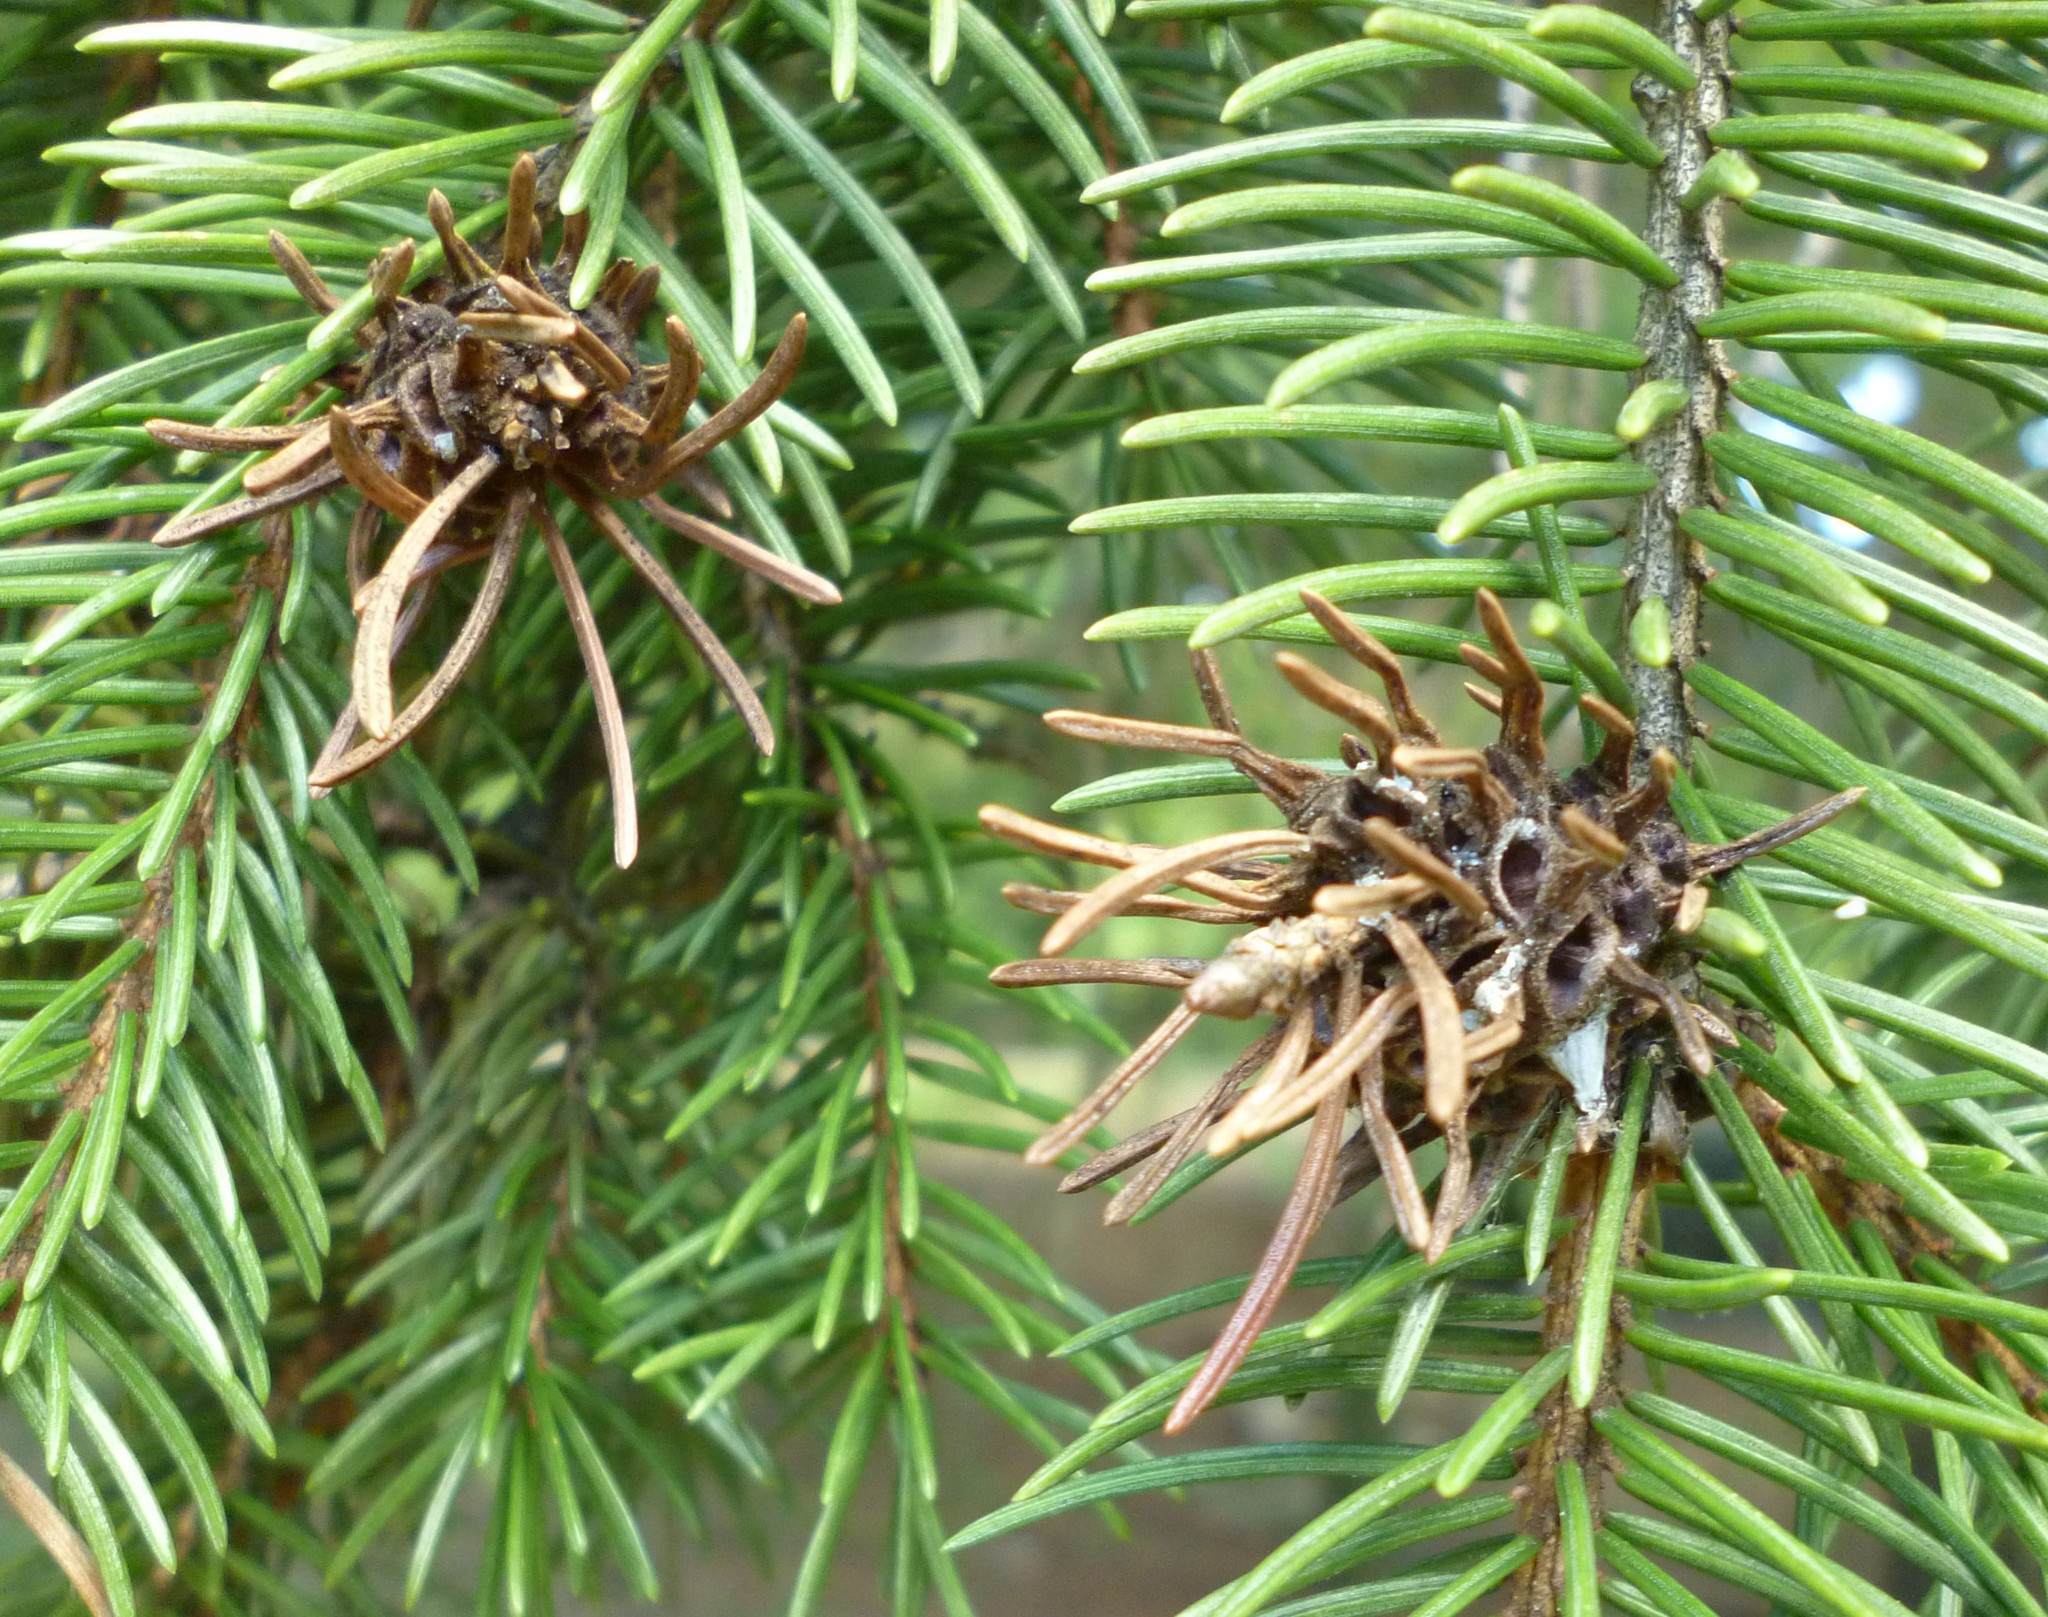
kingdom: Animalia
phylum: Arthropoda
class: Insecta
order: Hemiptera
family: Adelgidae
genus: Adelges
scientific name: Adelges abietis
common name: Eastern spruce gall adelgid
